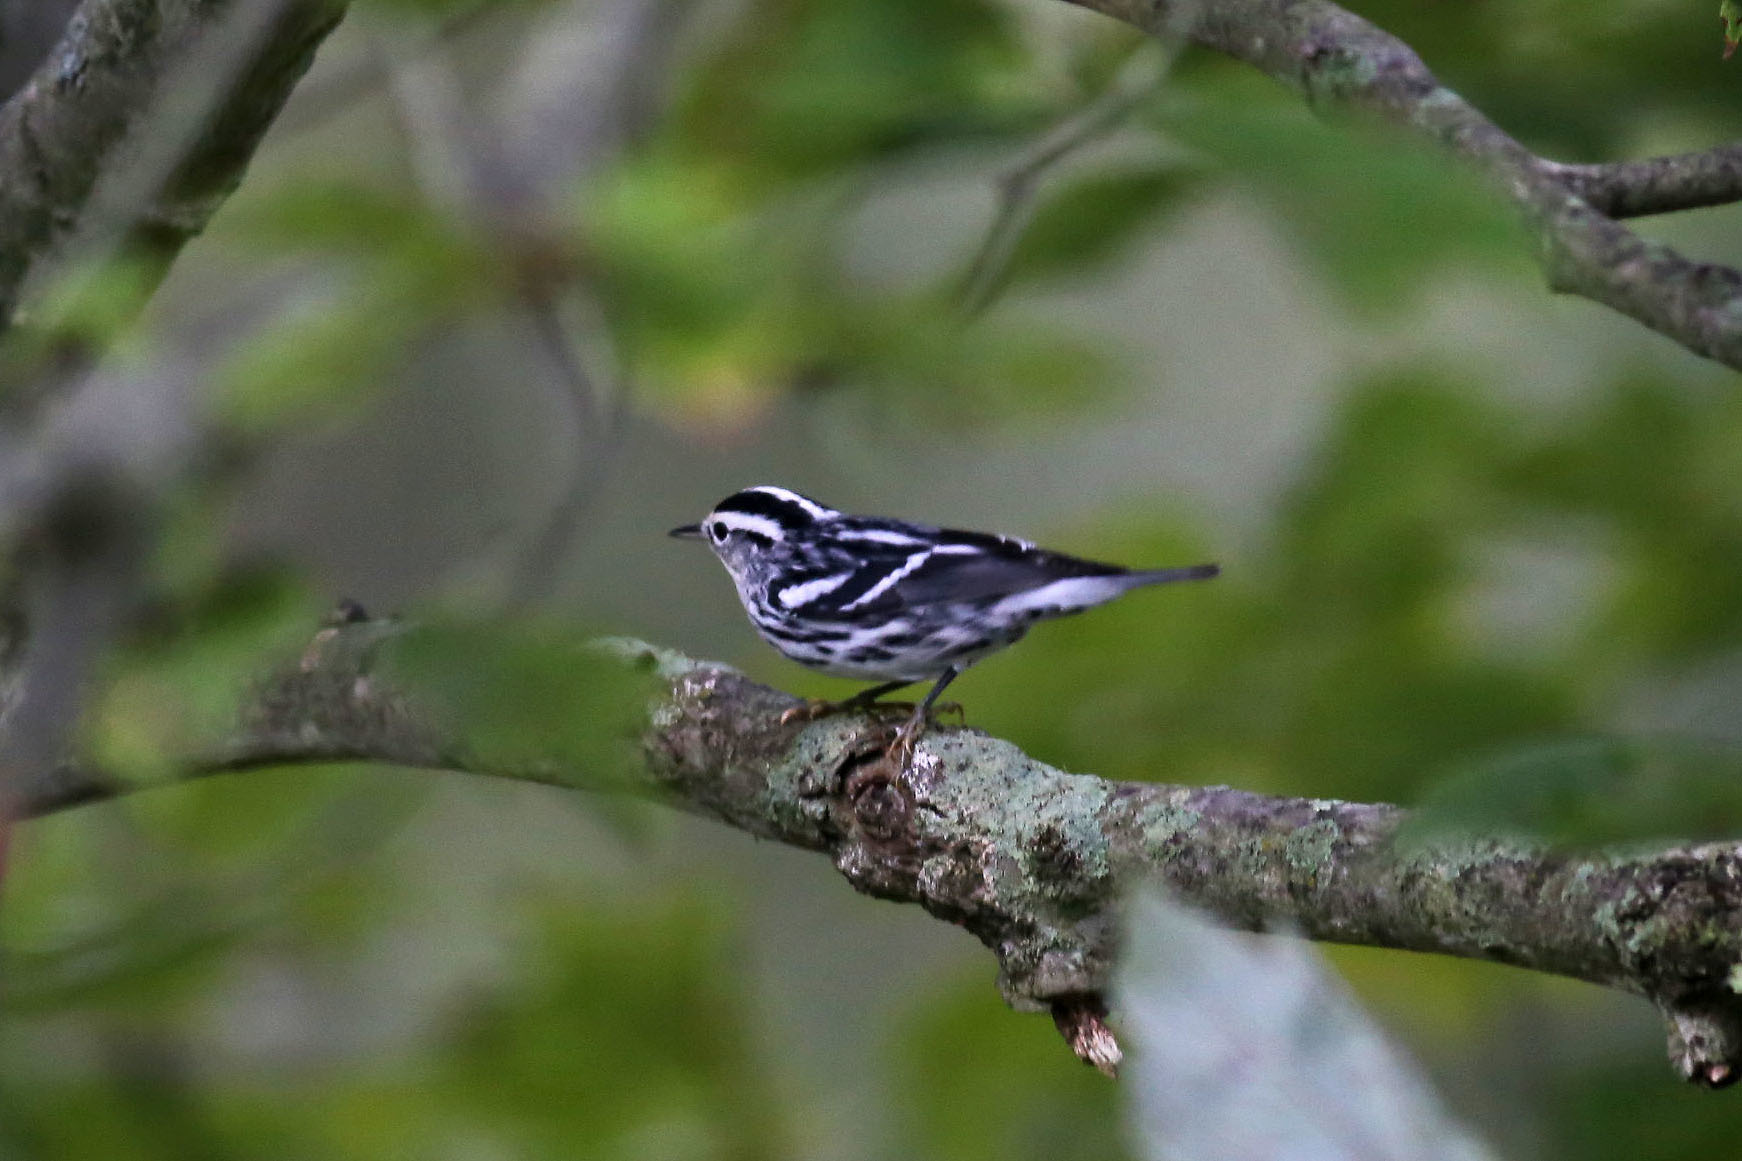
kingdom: Animalia
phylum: Chordata
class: Aves
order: Passeriformes
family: Parulidae
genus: Mniotilta
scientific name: Mniotilta varia
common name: Black-and-white warbler
